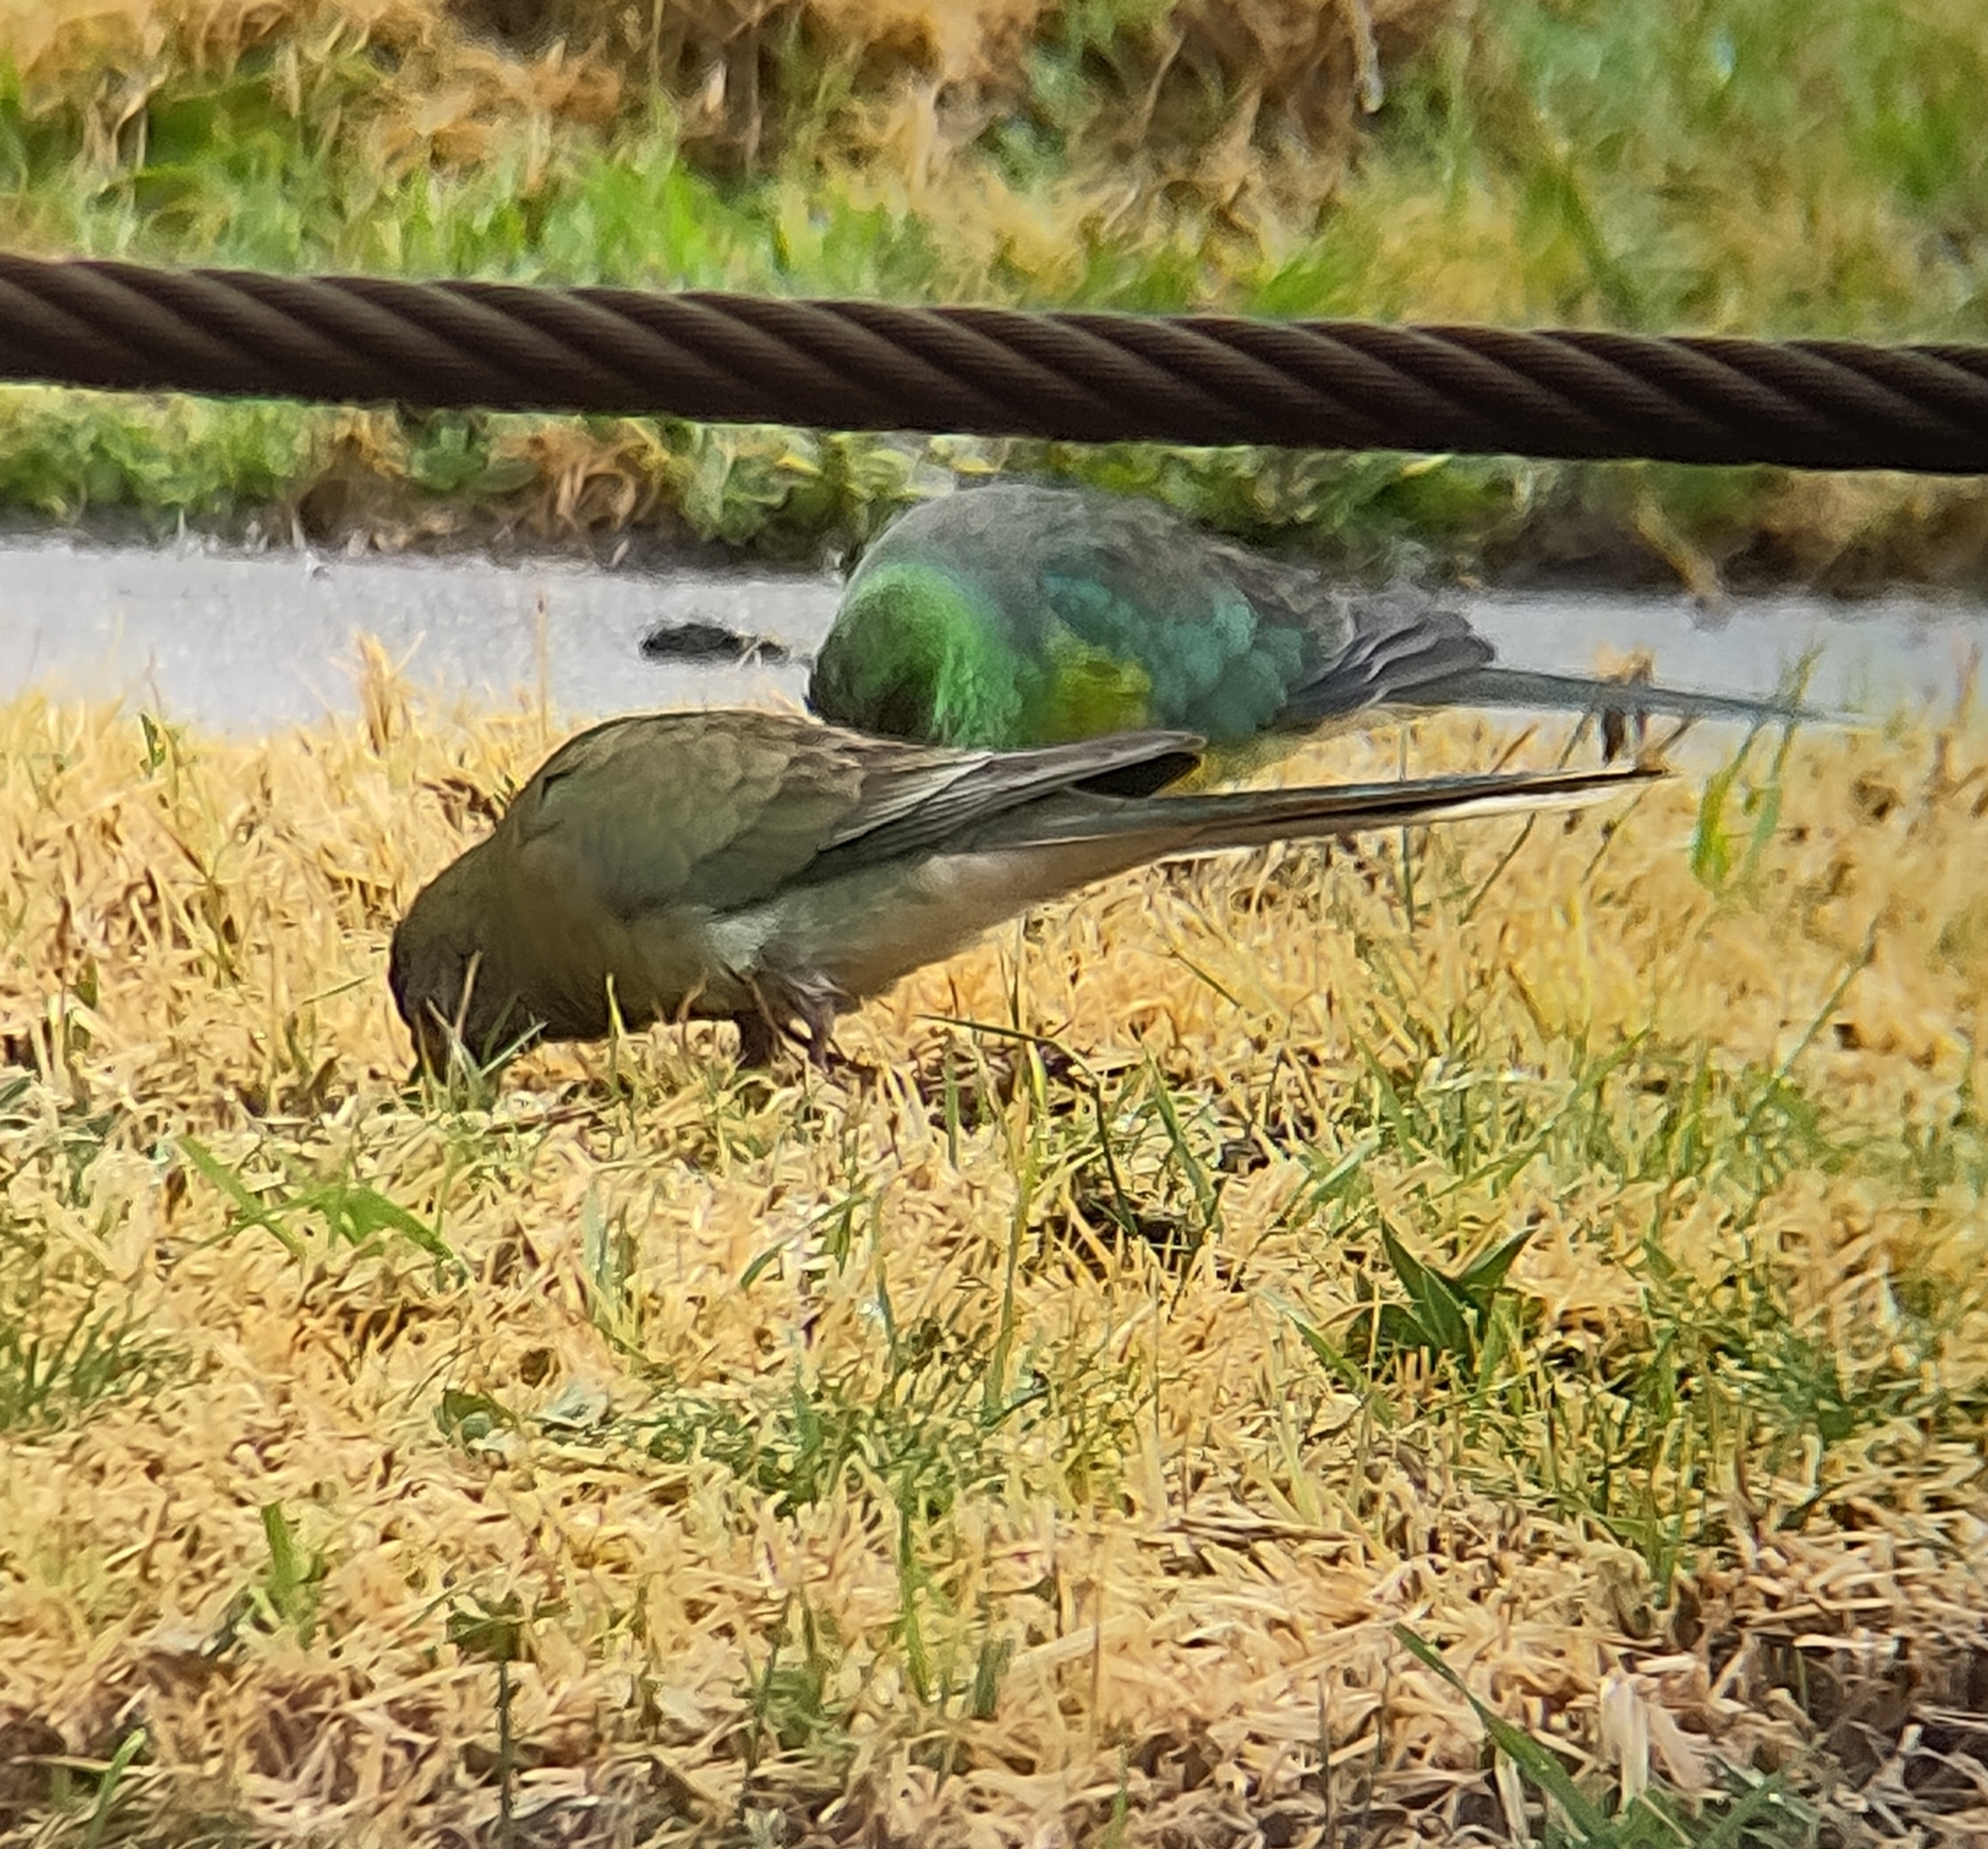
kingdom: Animalia
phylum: Chordata
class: Aves
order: Psittaciformes
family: Psittacidae
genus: Psephotus
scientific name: Psephotus haematonotus
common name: Red-rumped parrot
